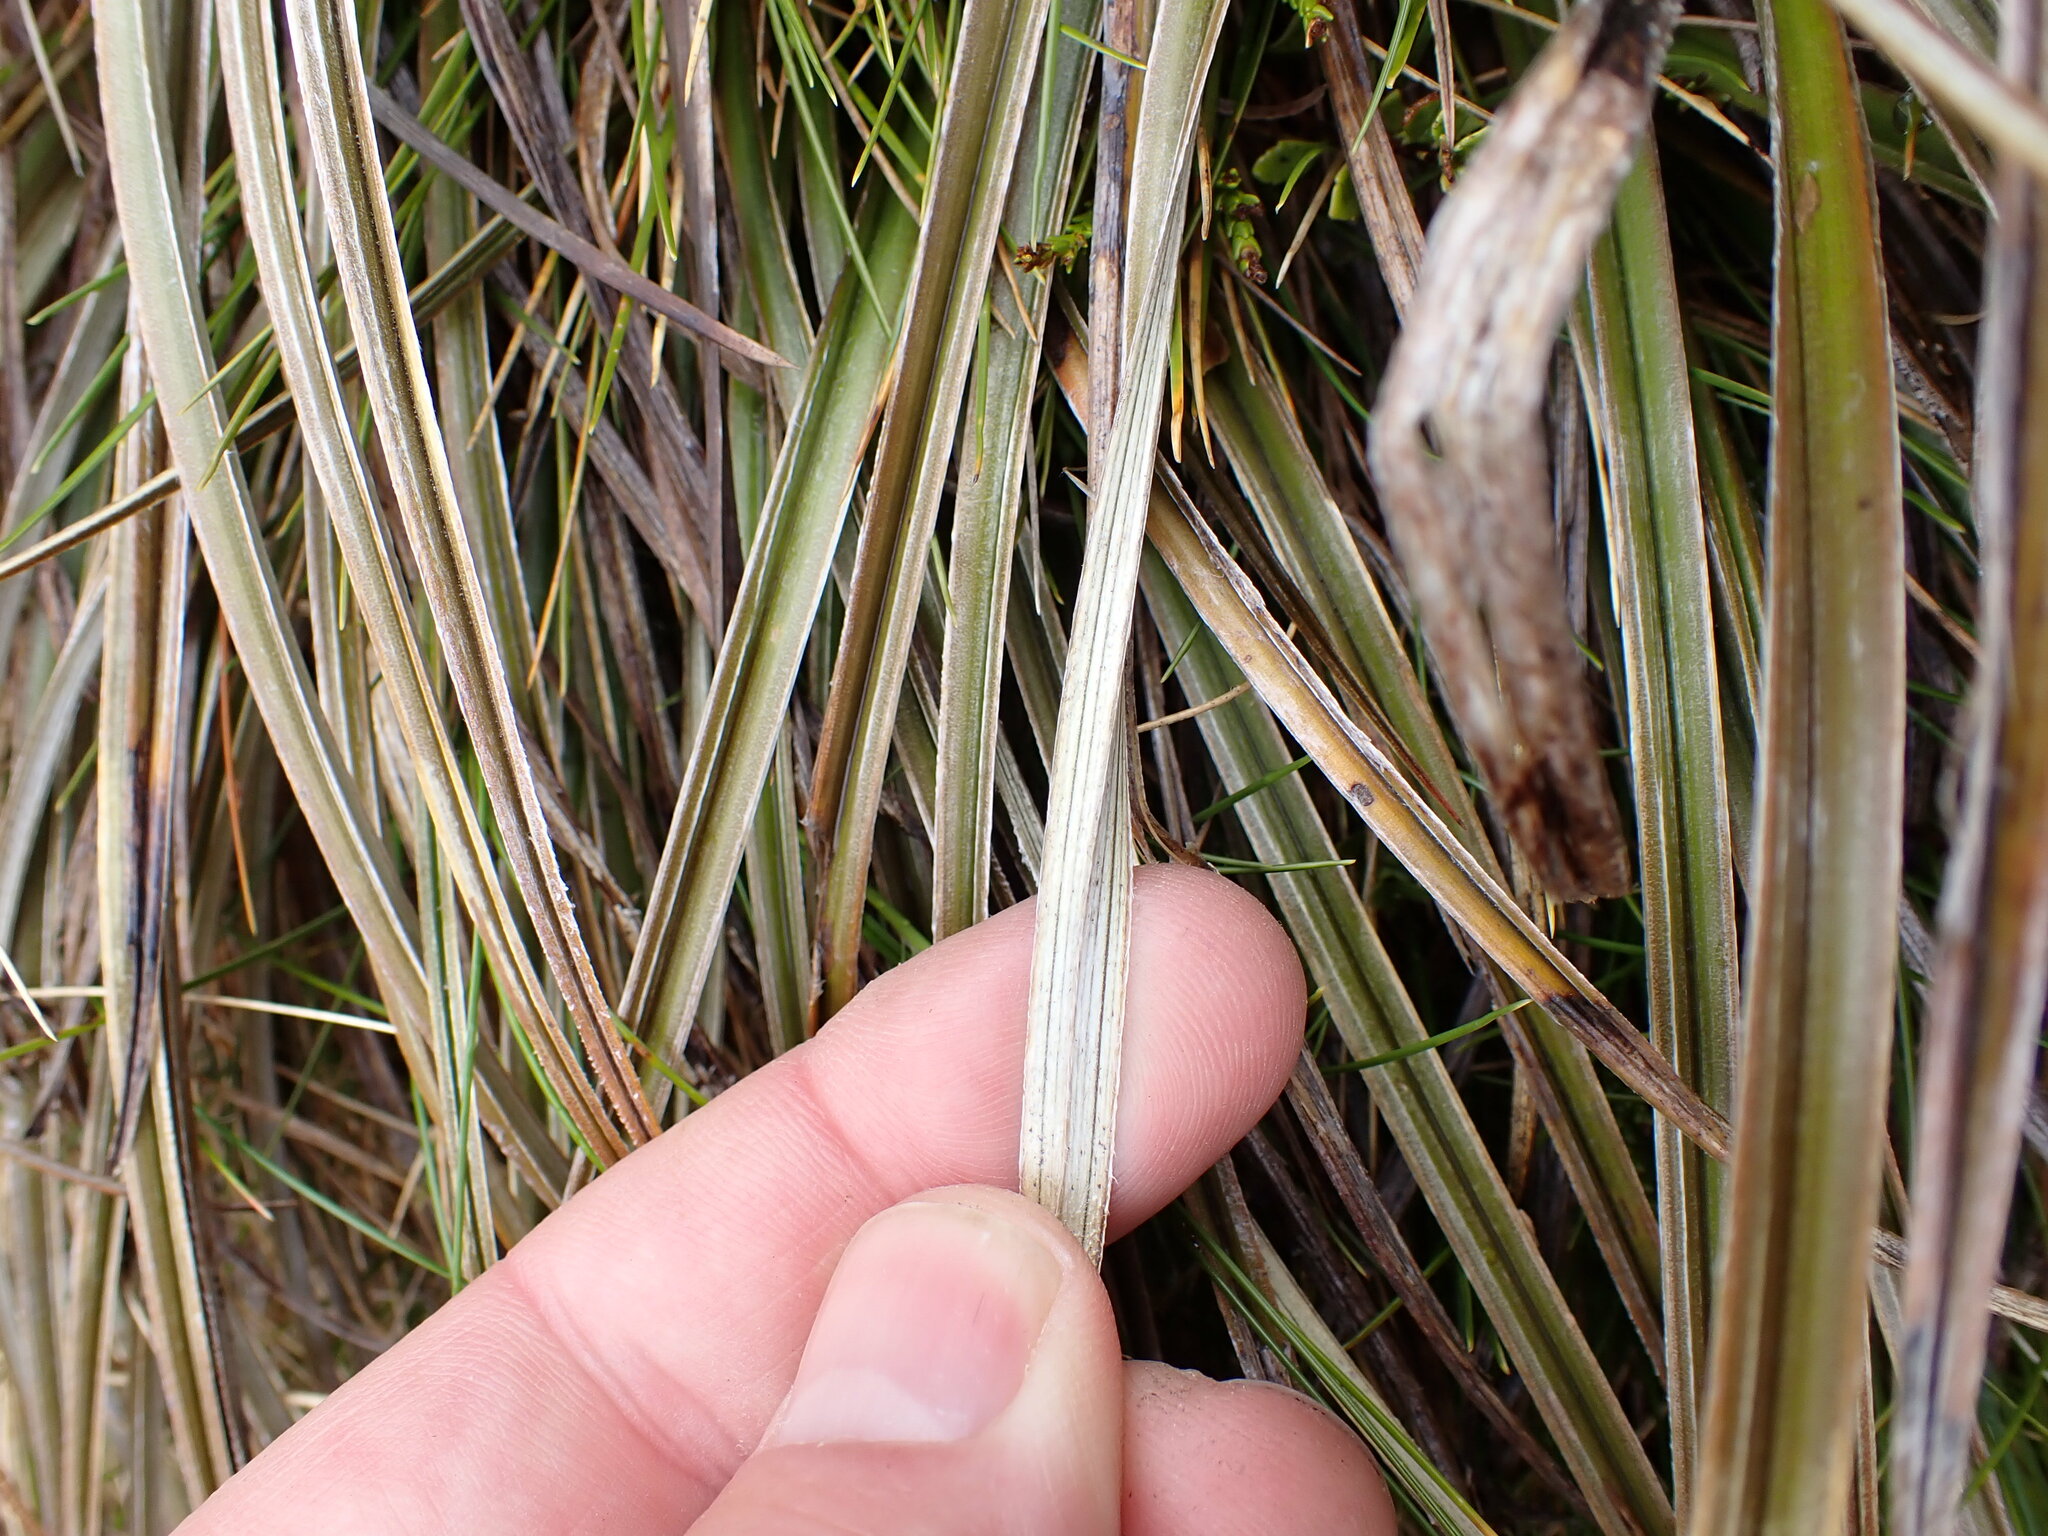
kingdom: Plantae
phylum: Tracheophyta
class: Liliopsida
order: Asparagales
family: Asteliaceae
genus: Astelia
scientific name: Astelia graminea
